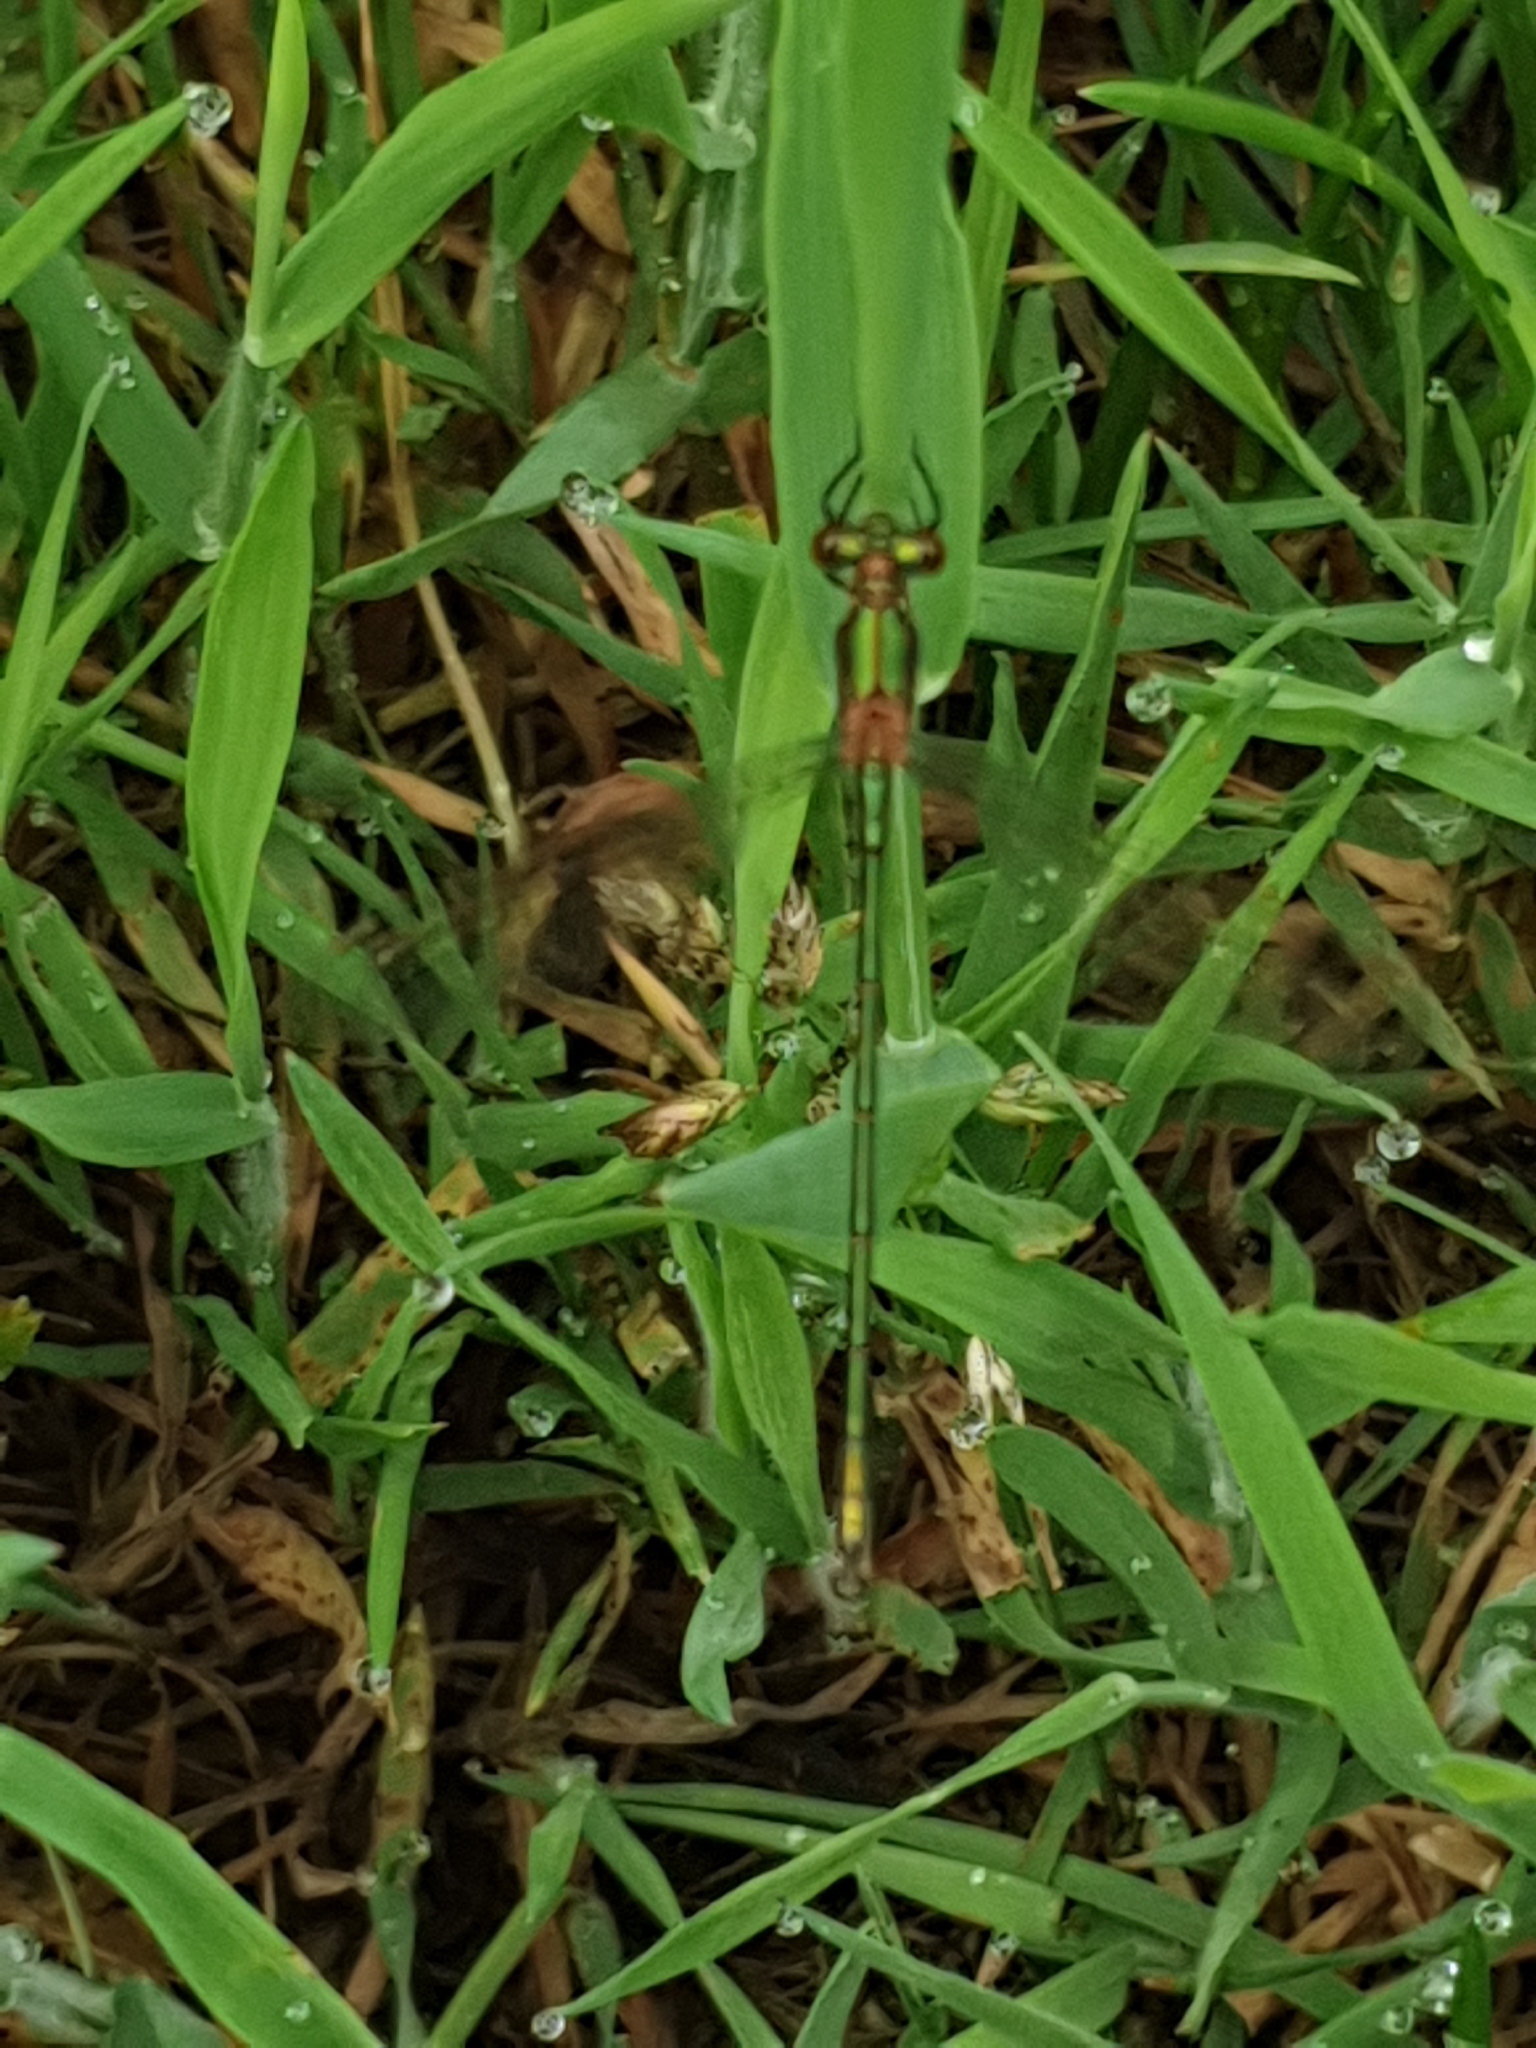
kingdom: Animalia
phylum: Arthropoda
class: Insecta
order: Odonata
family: Lestidae
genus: Lestes
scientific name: Lestes
